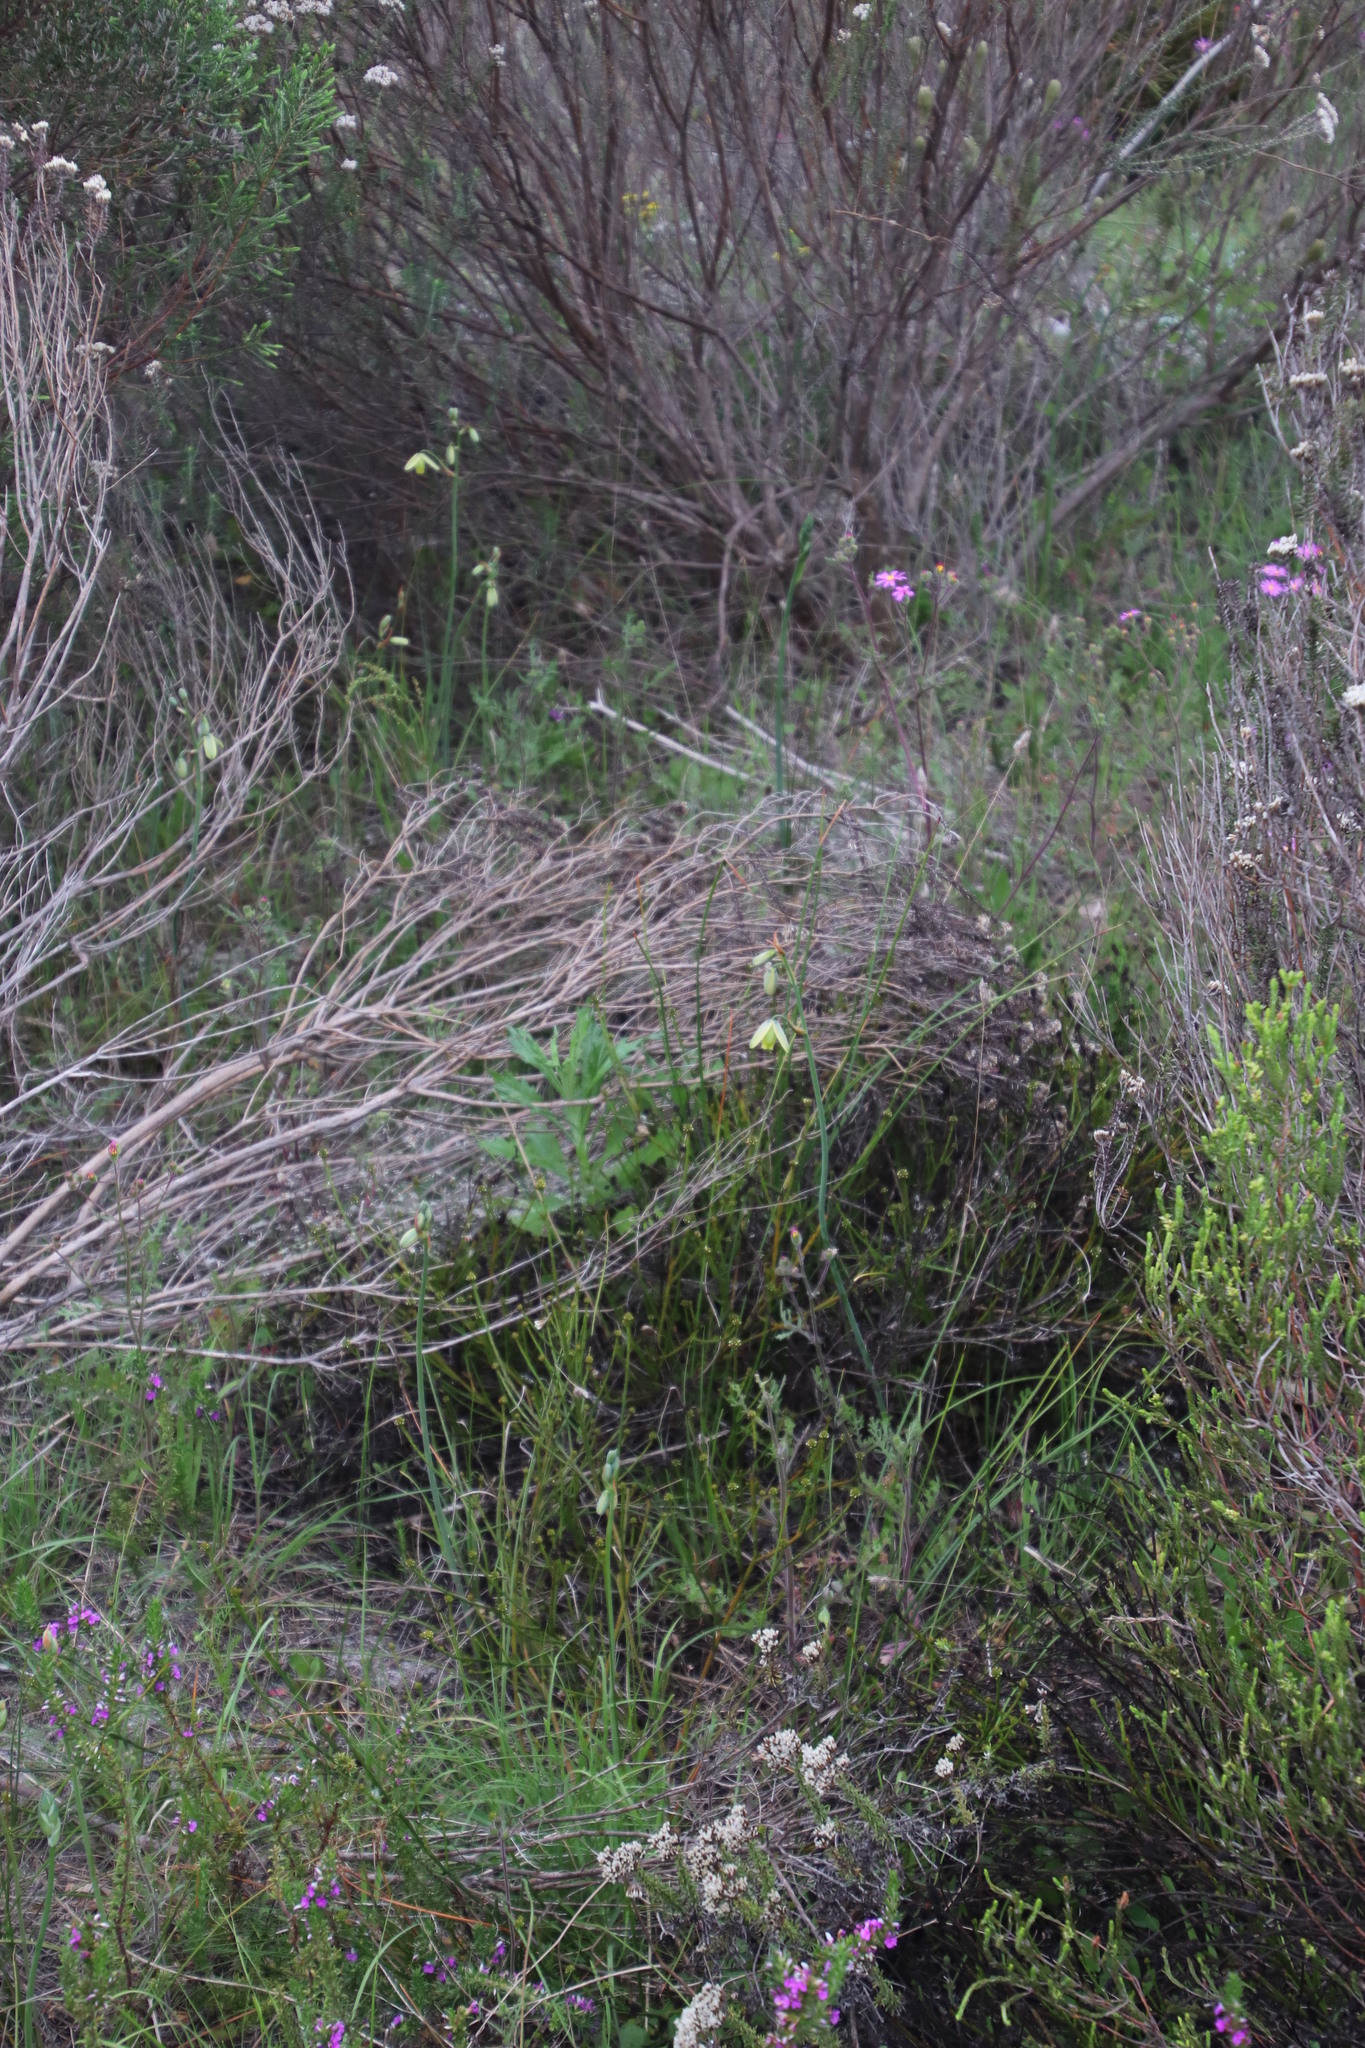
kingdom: Plantae
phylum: Tracheophyta
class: Liliopsida
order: Asparagales
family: Asparagaceae
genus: Albuca
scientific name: Albuca cooperi
